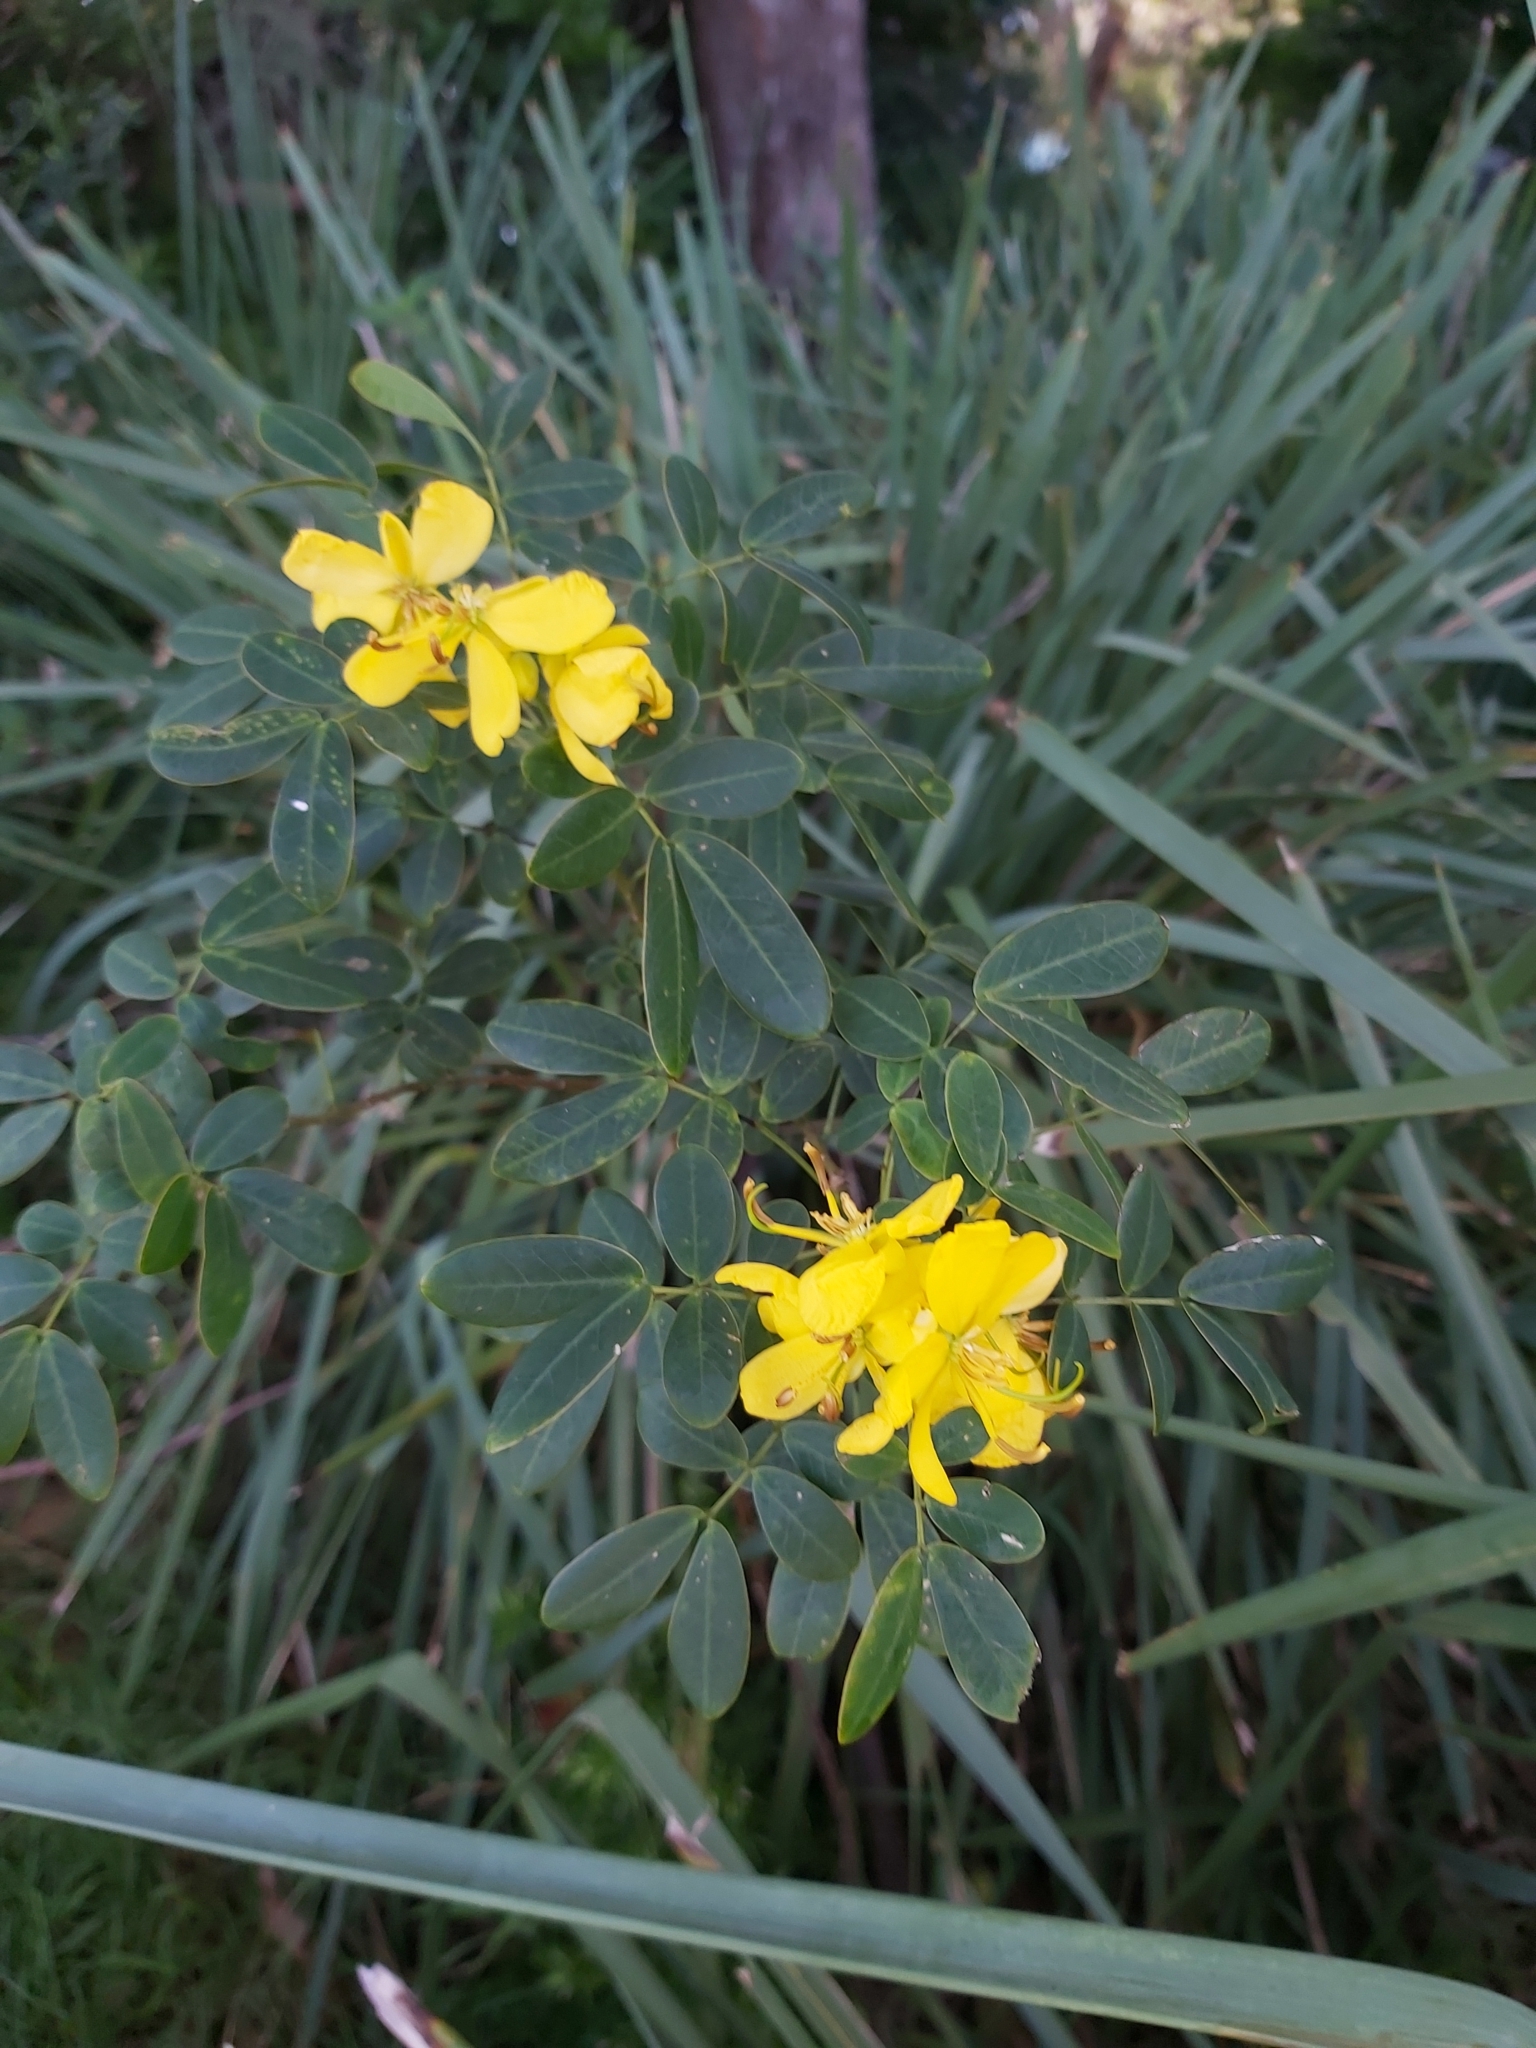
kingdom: Plantae
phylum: Tracheophyta
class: Magnoliopsida
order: Fabales
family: Fabaceae
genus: Senna
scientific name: Senna pendula
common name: Easter cassia
